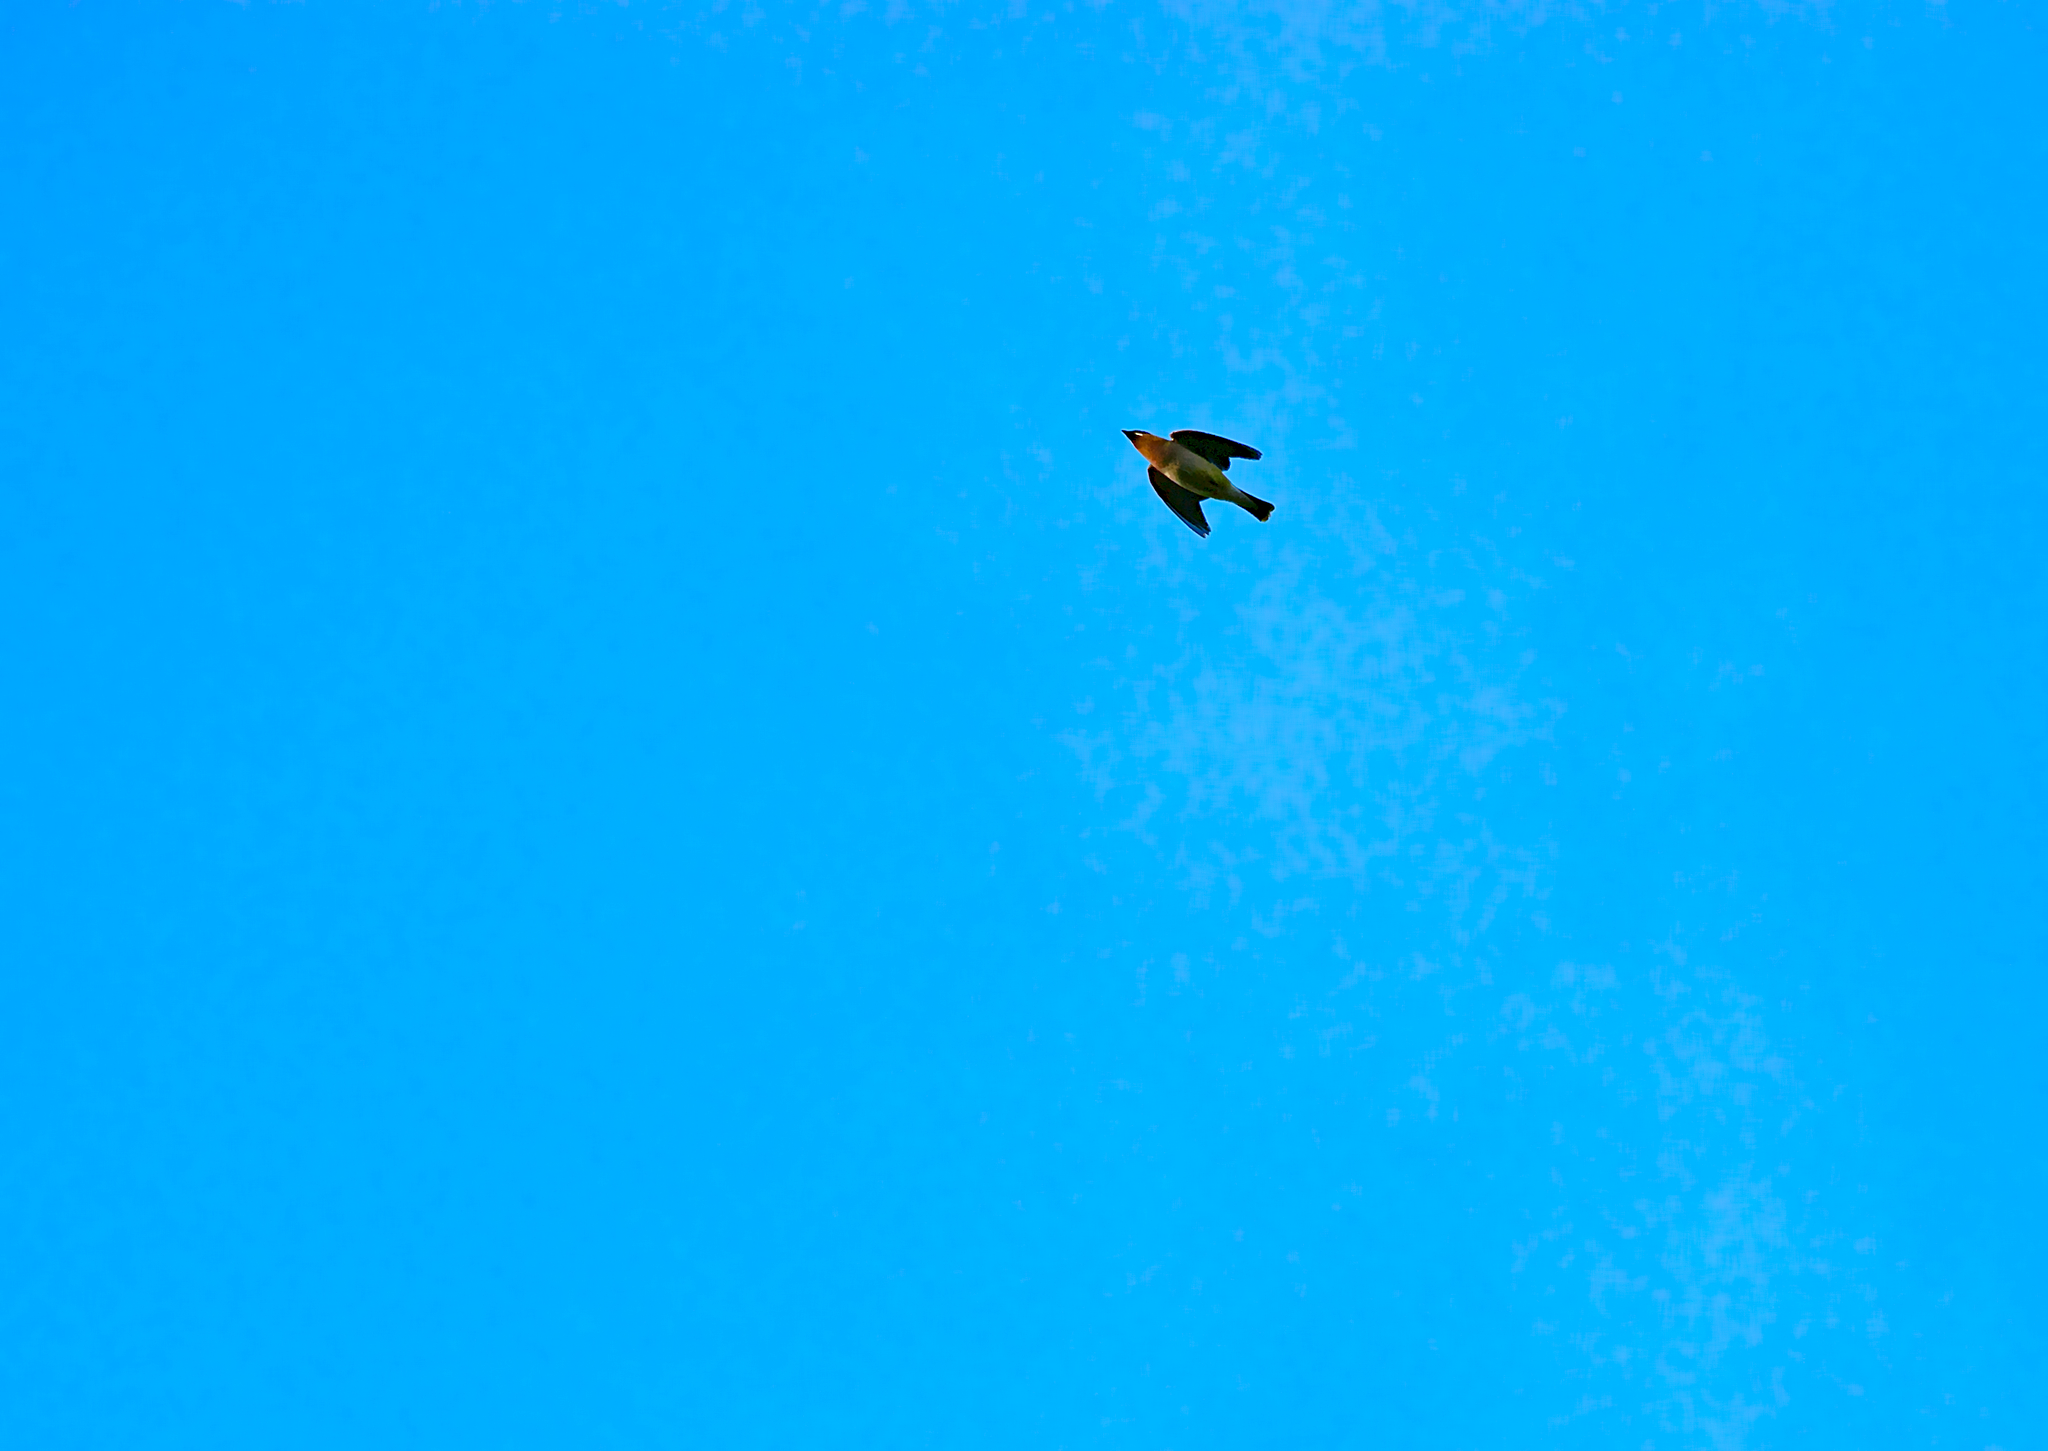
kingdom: Animalia
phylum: Chordata
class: Aves
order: Passeriformes
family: Bombycillidae
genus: Bombycilla
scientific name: Bombycilla cedrorum
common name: Cedar waxwing
